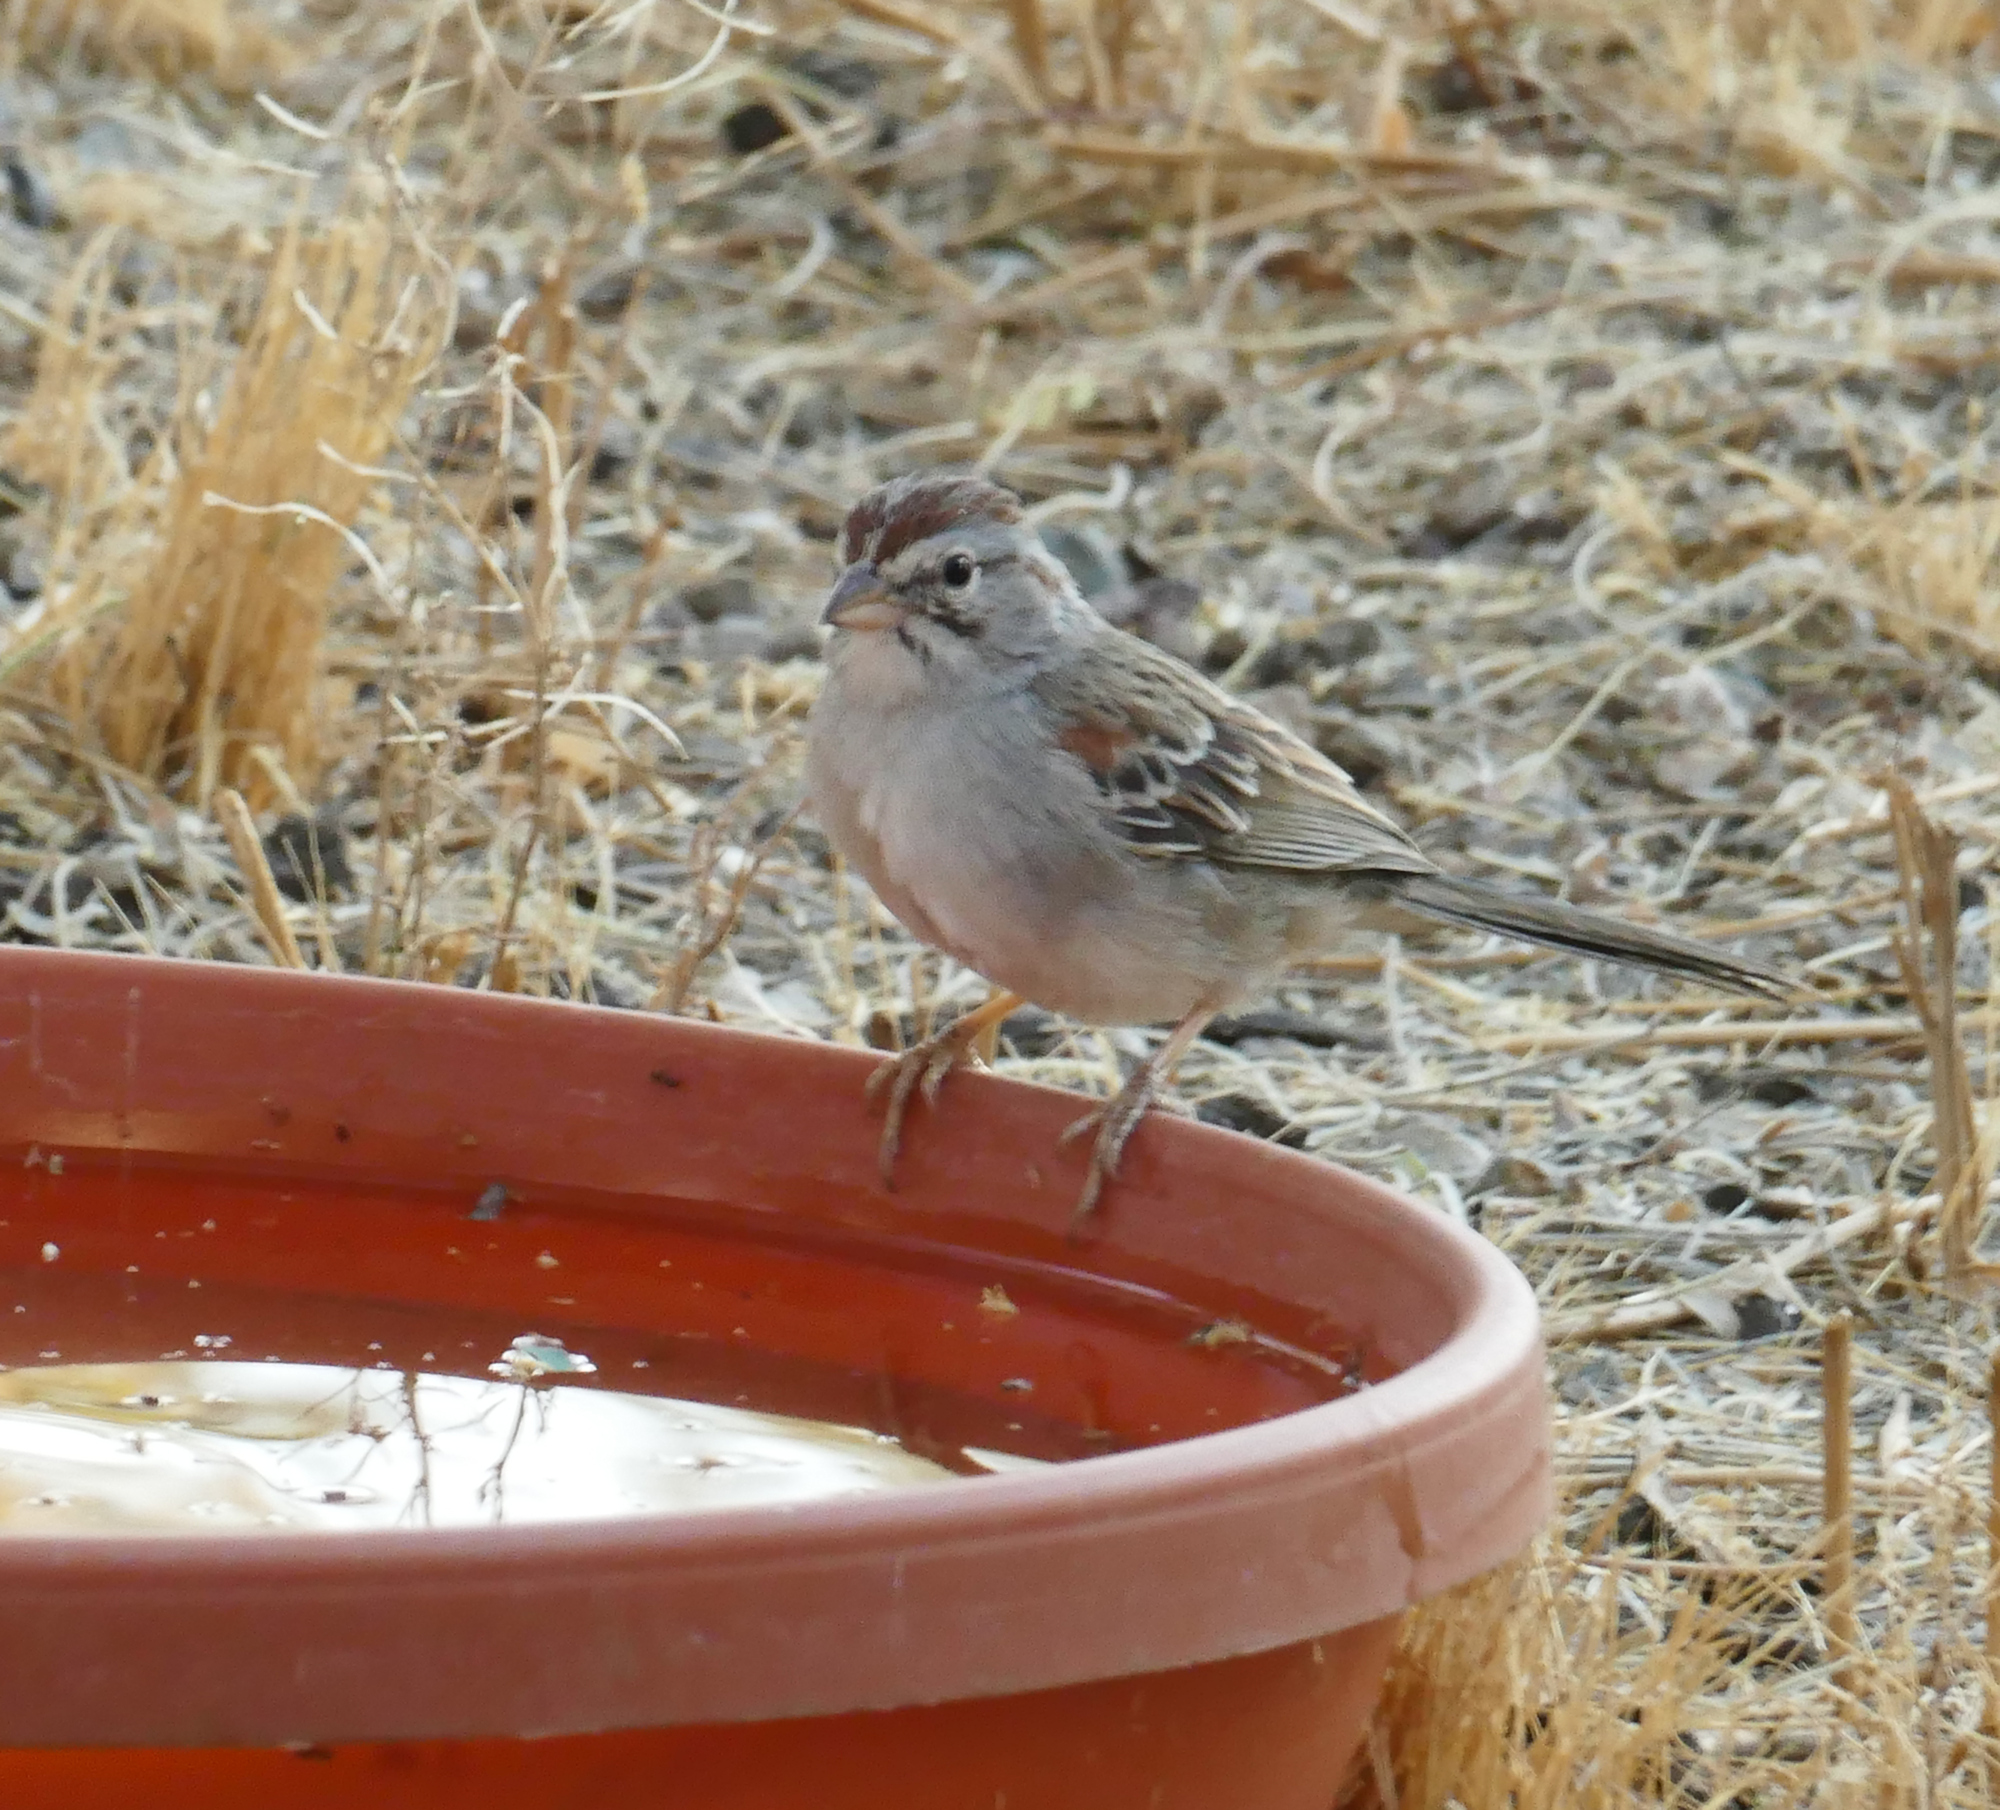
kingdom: Animalia
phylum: Chordata
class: Aves
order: Passeriformes
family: Passerellidae
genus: Peucaea
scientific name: Peucaea carpalis
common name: Rufous-winged sparrow
